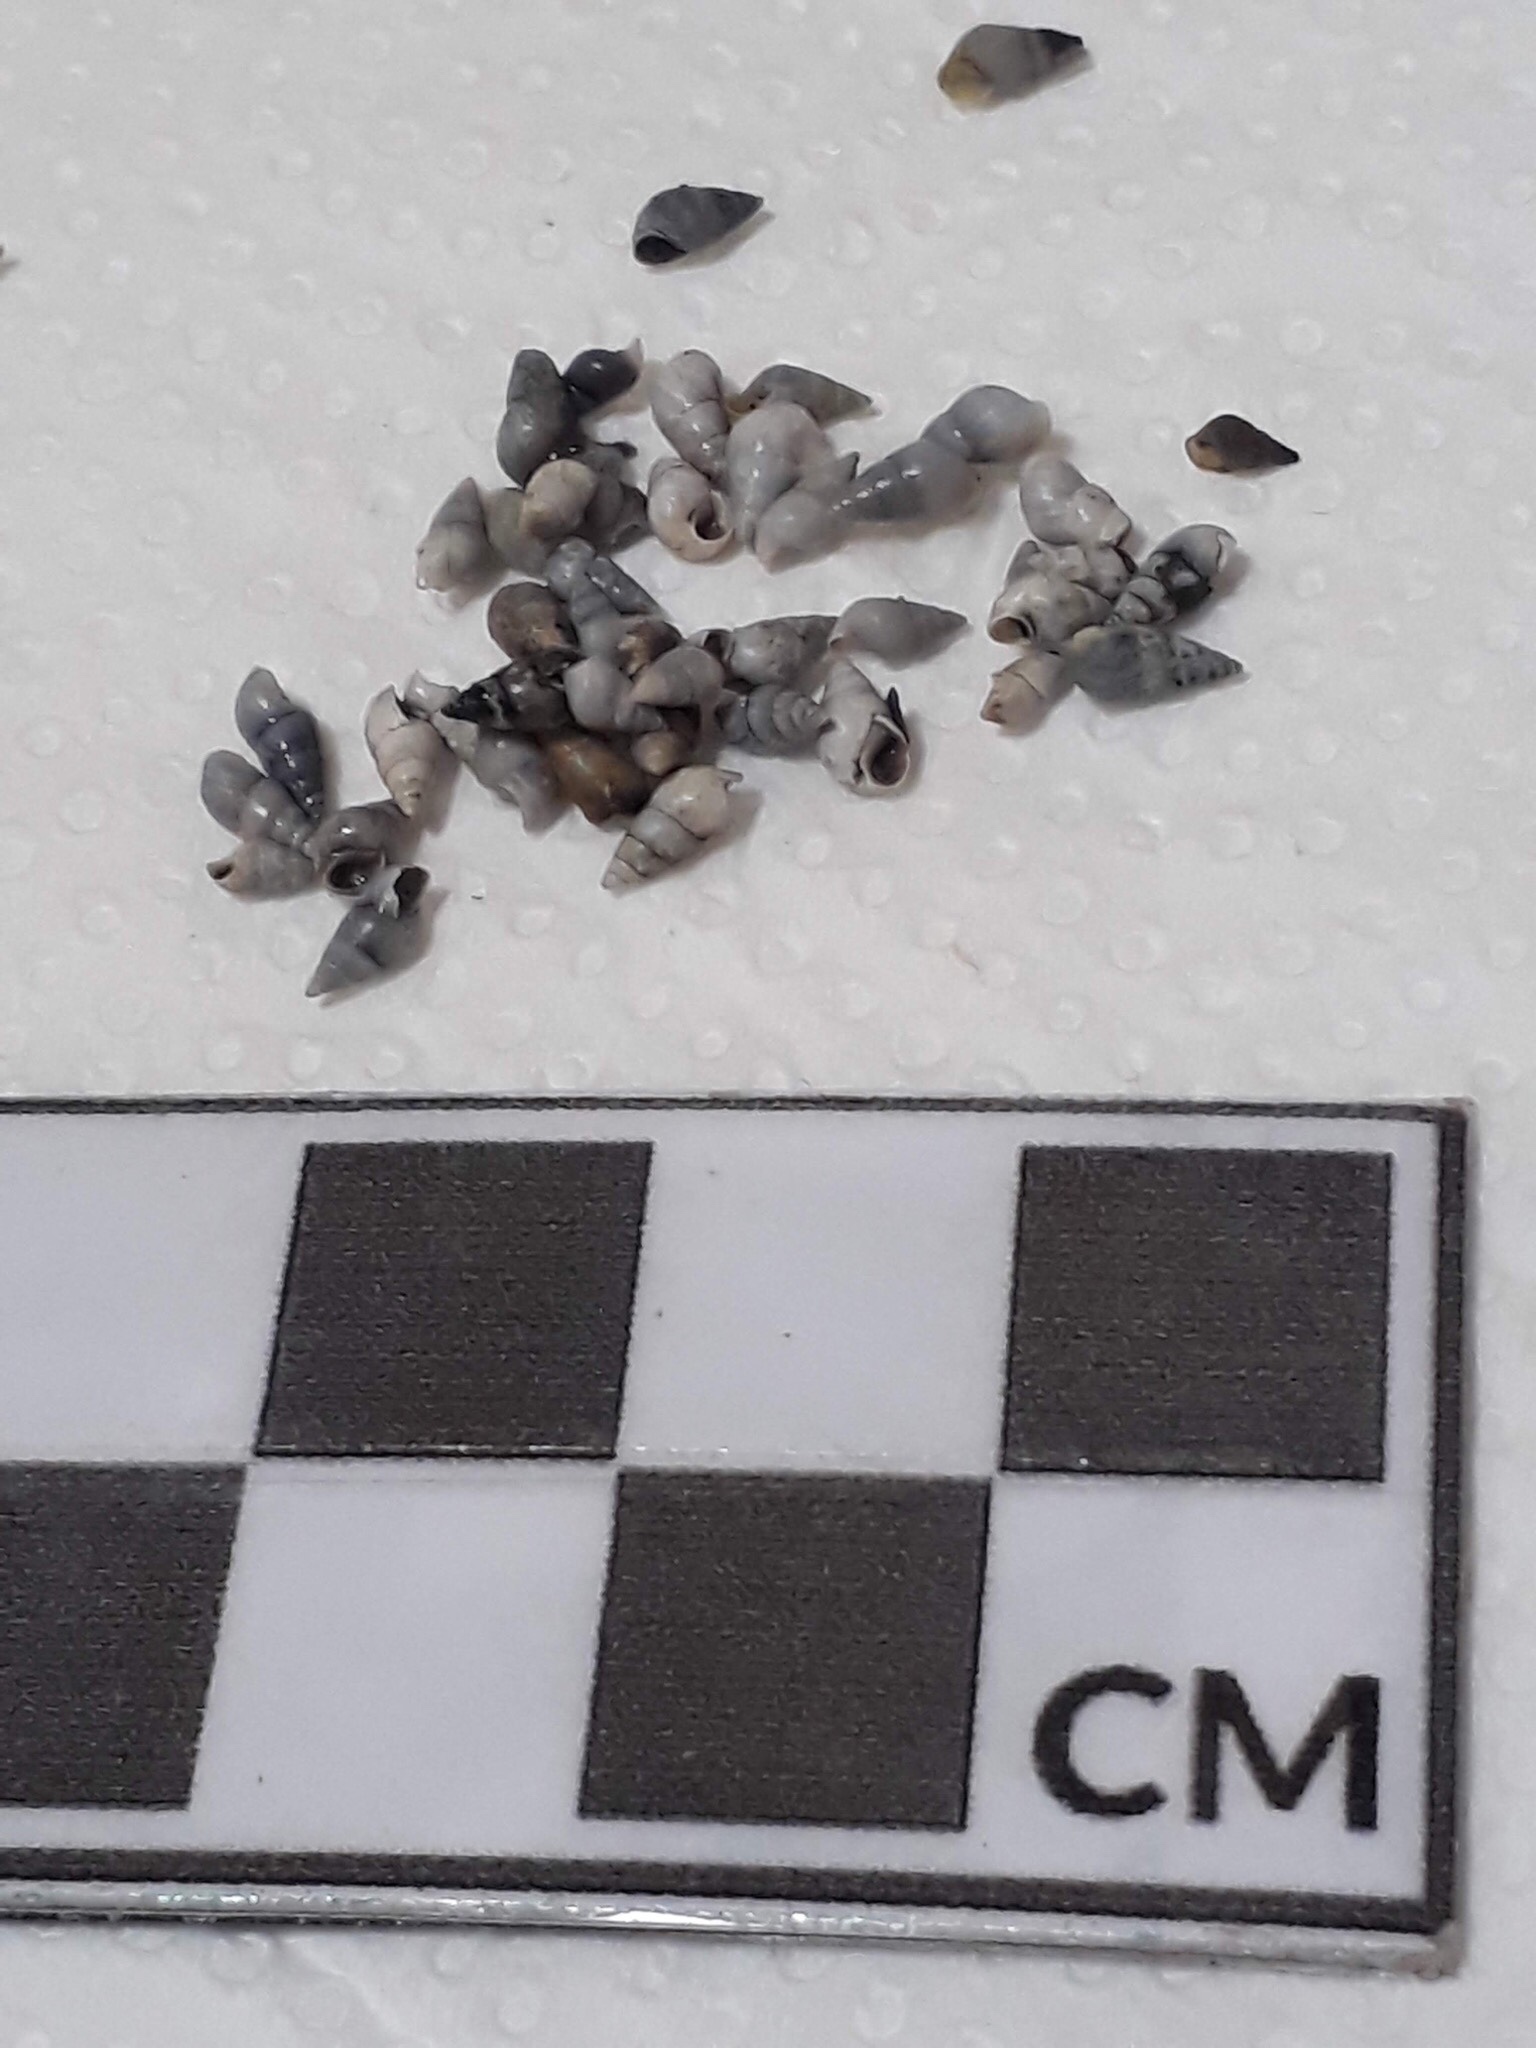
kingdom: Animalia
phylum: Mollusca
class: Gastropoda
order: Littorinimorpha
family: Cochliopidae
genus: Heleobia
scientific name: Heleobia australis
